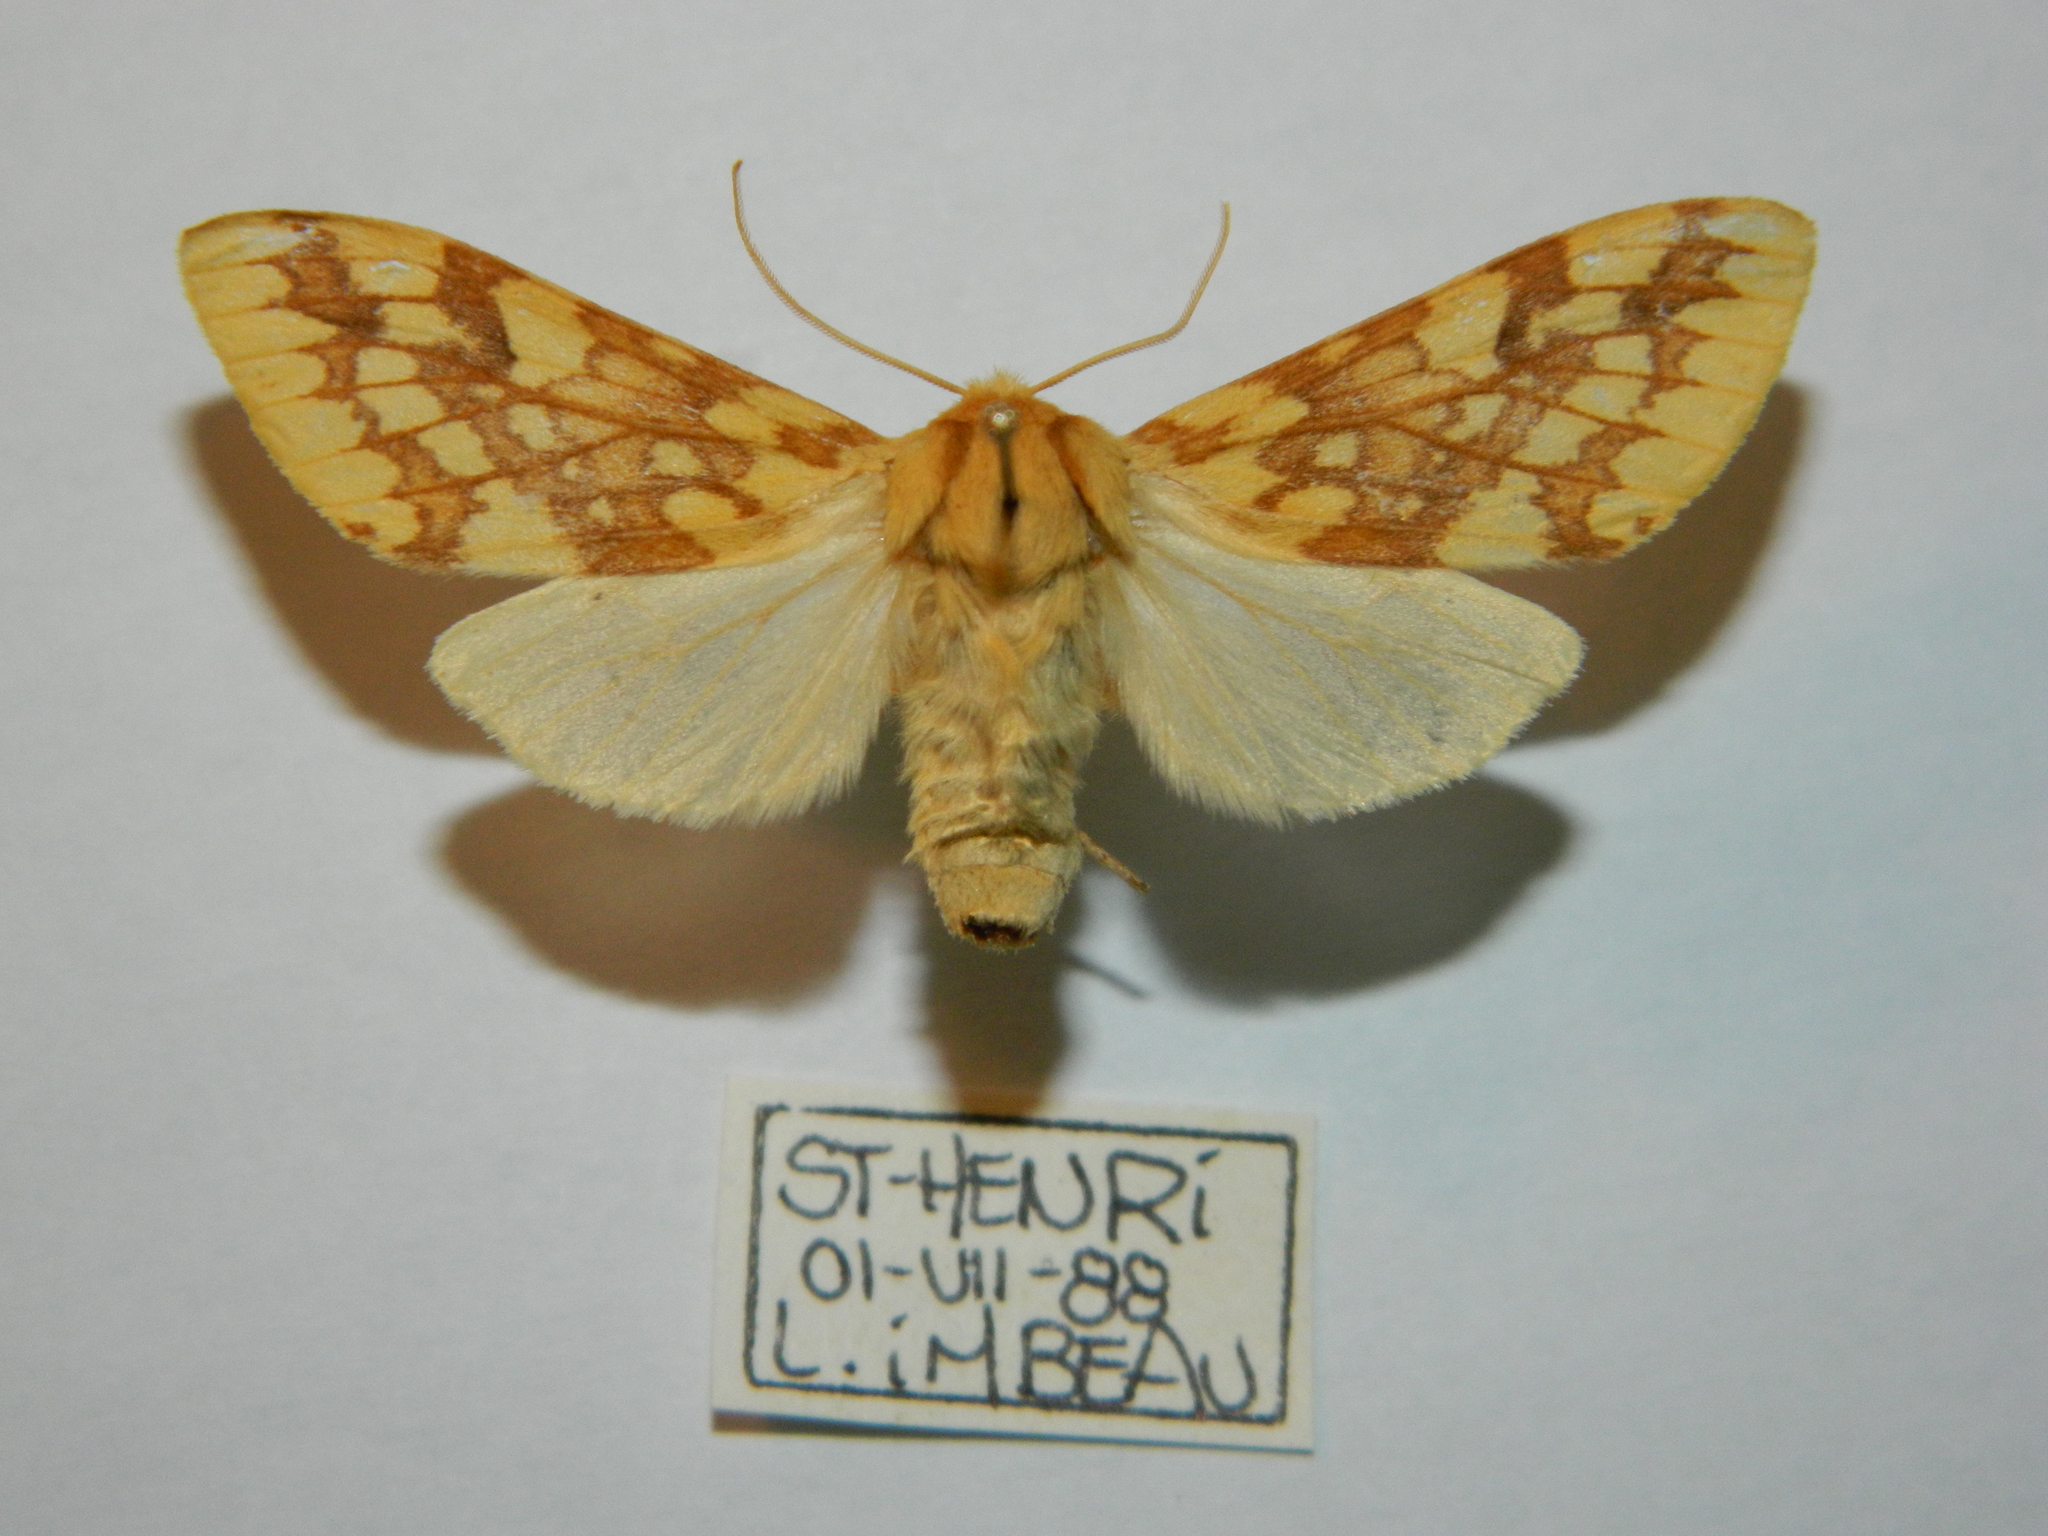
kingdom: Animalia
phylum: Arthropoda
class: Insecta
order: Lepidoptera
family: Erebidae
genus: Lophocampa
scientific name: Lophocampa maculata
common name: Spotted tussock moth
